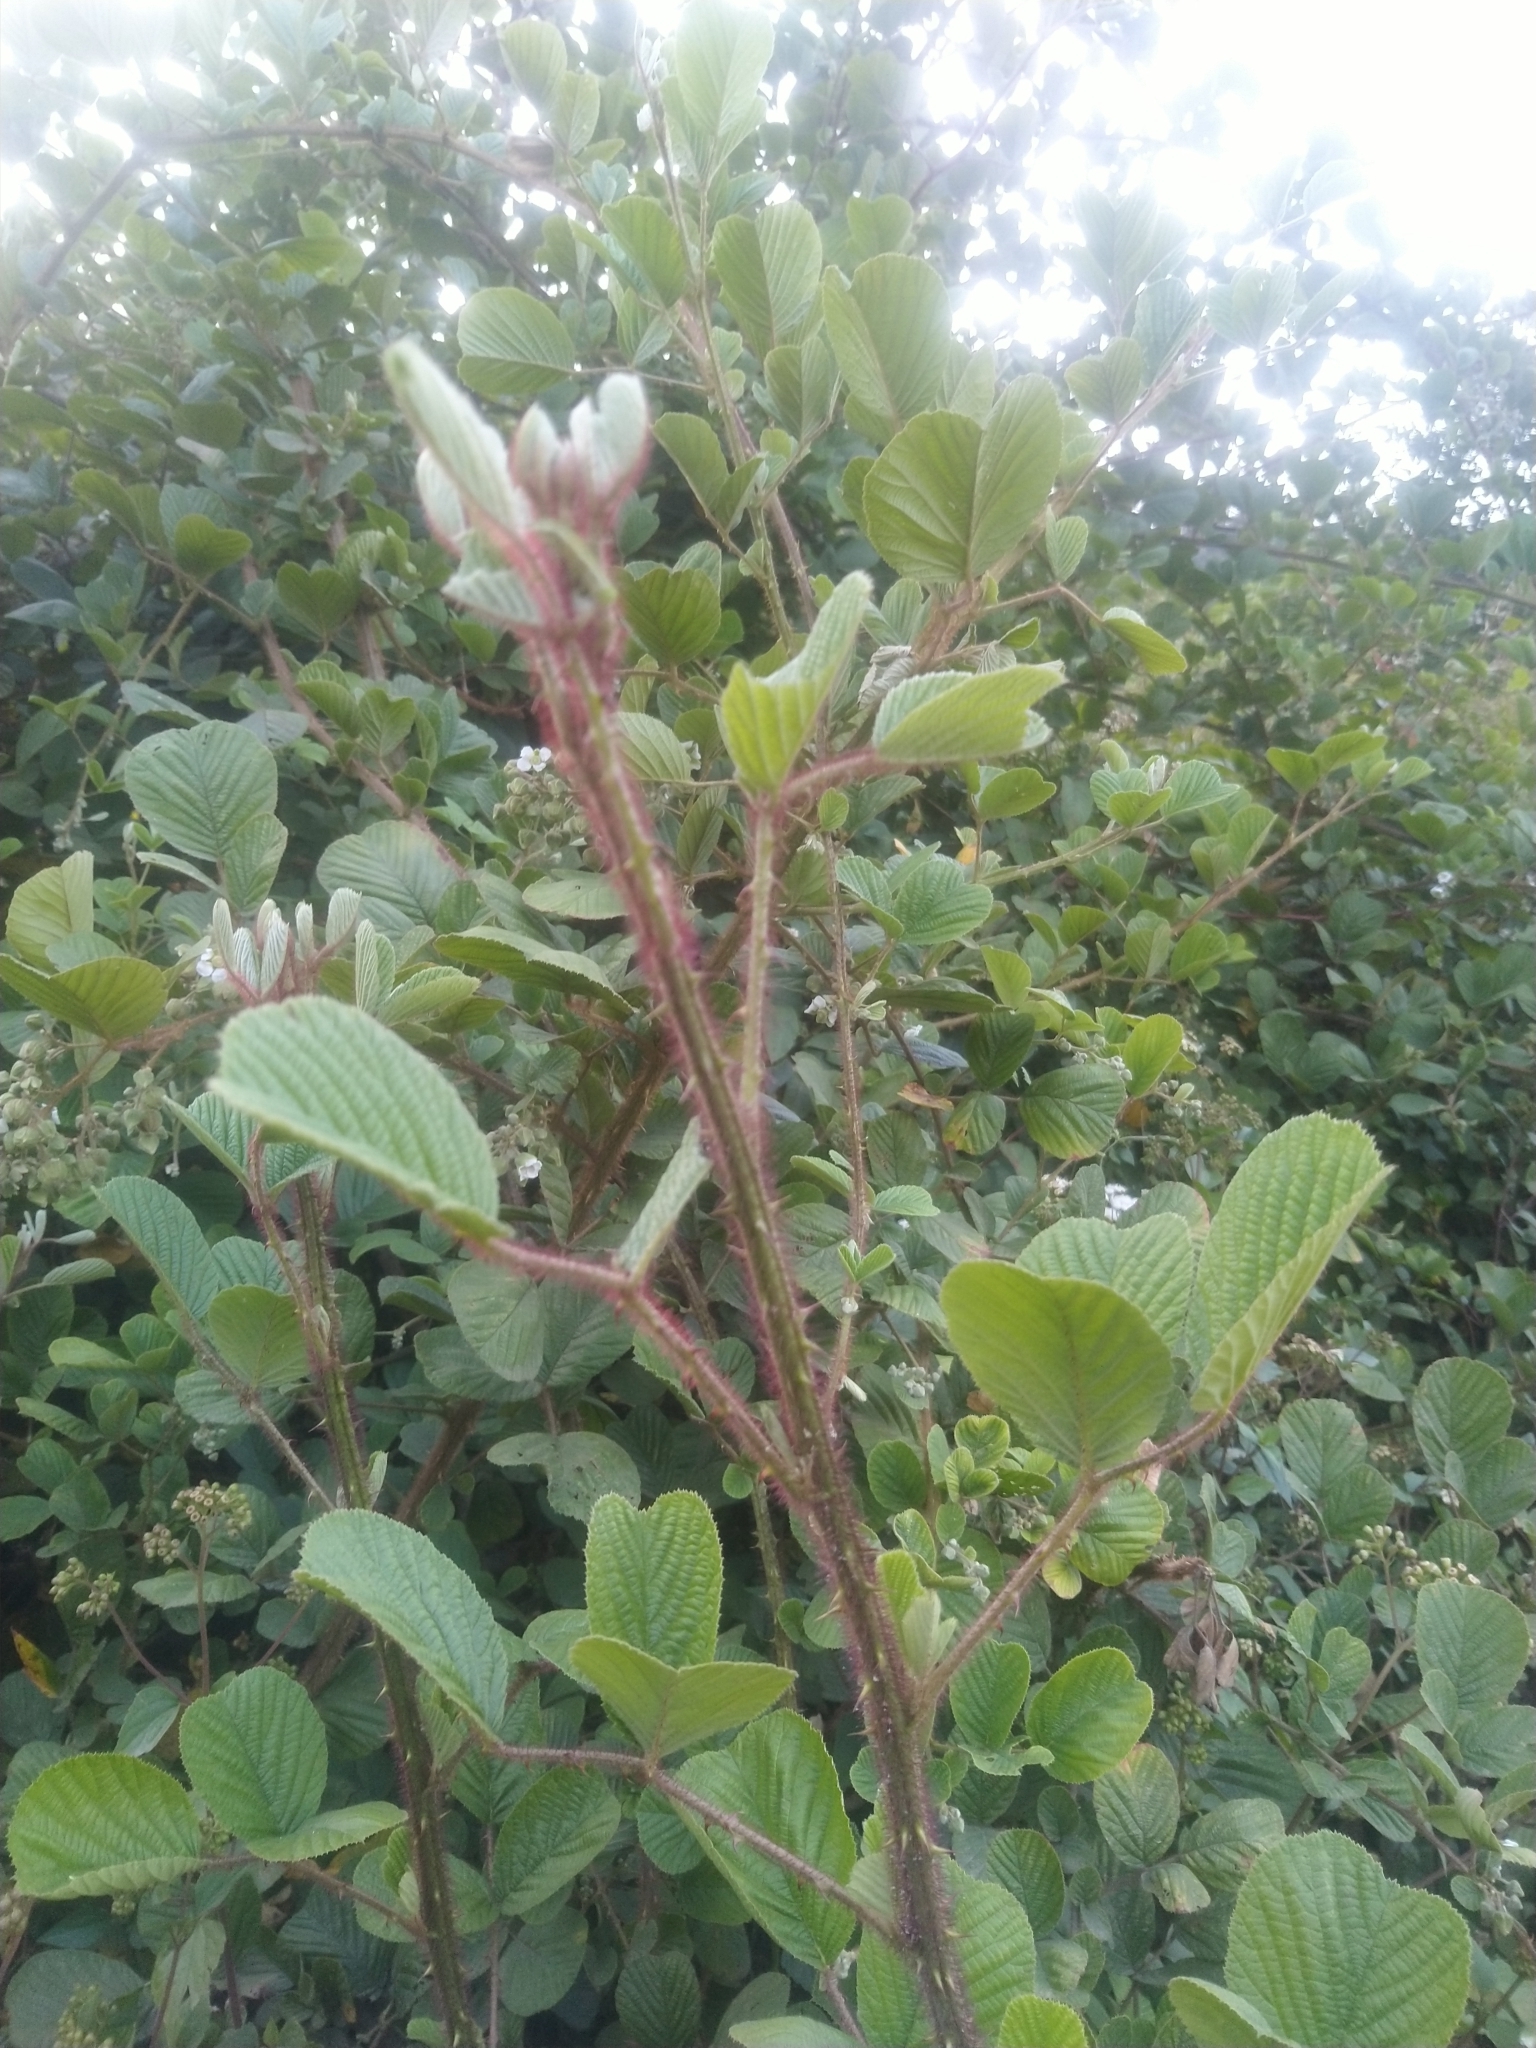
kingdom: Plantae
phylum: Tracheophyta
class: Magnoliopsida
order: Rosales
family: Rosaceae
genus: Rubus
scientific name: Rubus ellipticus
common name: Cheeseberry
